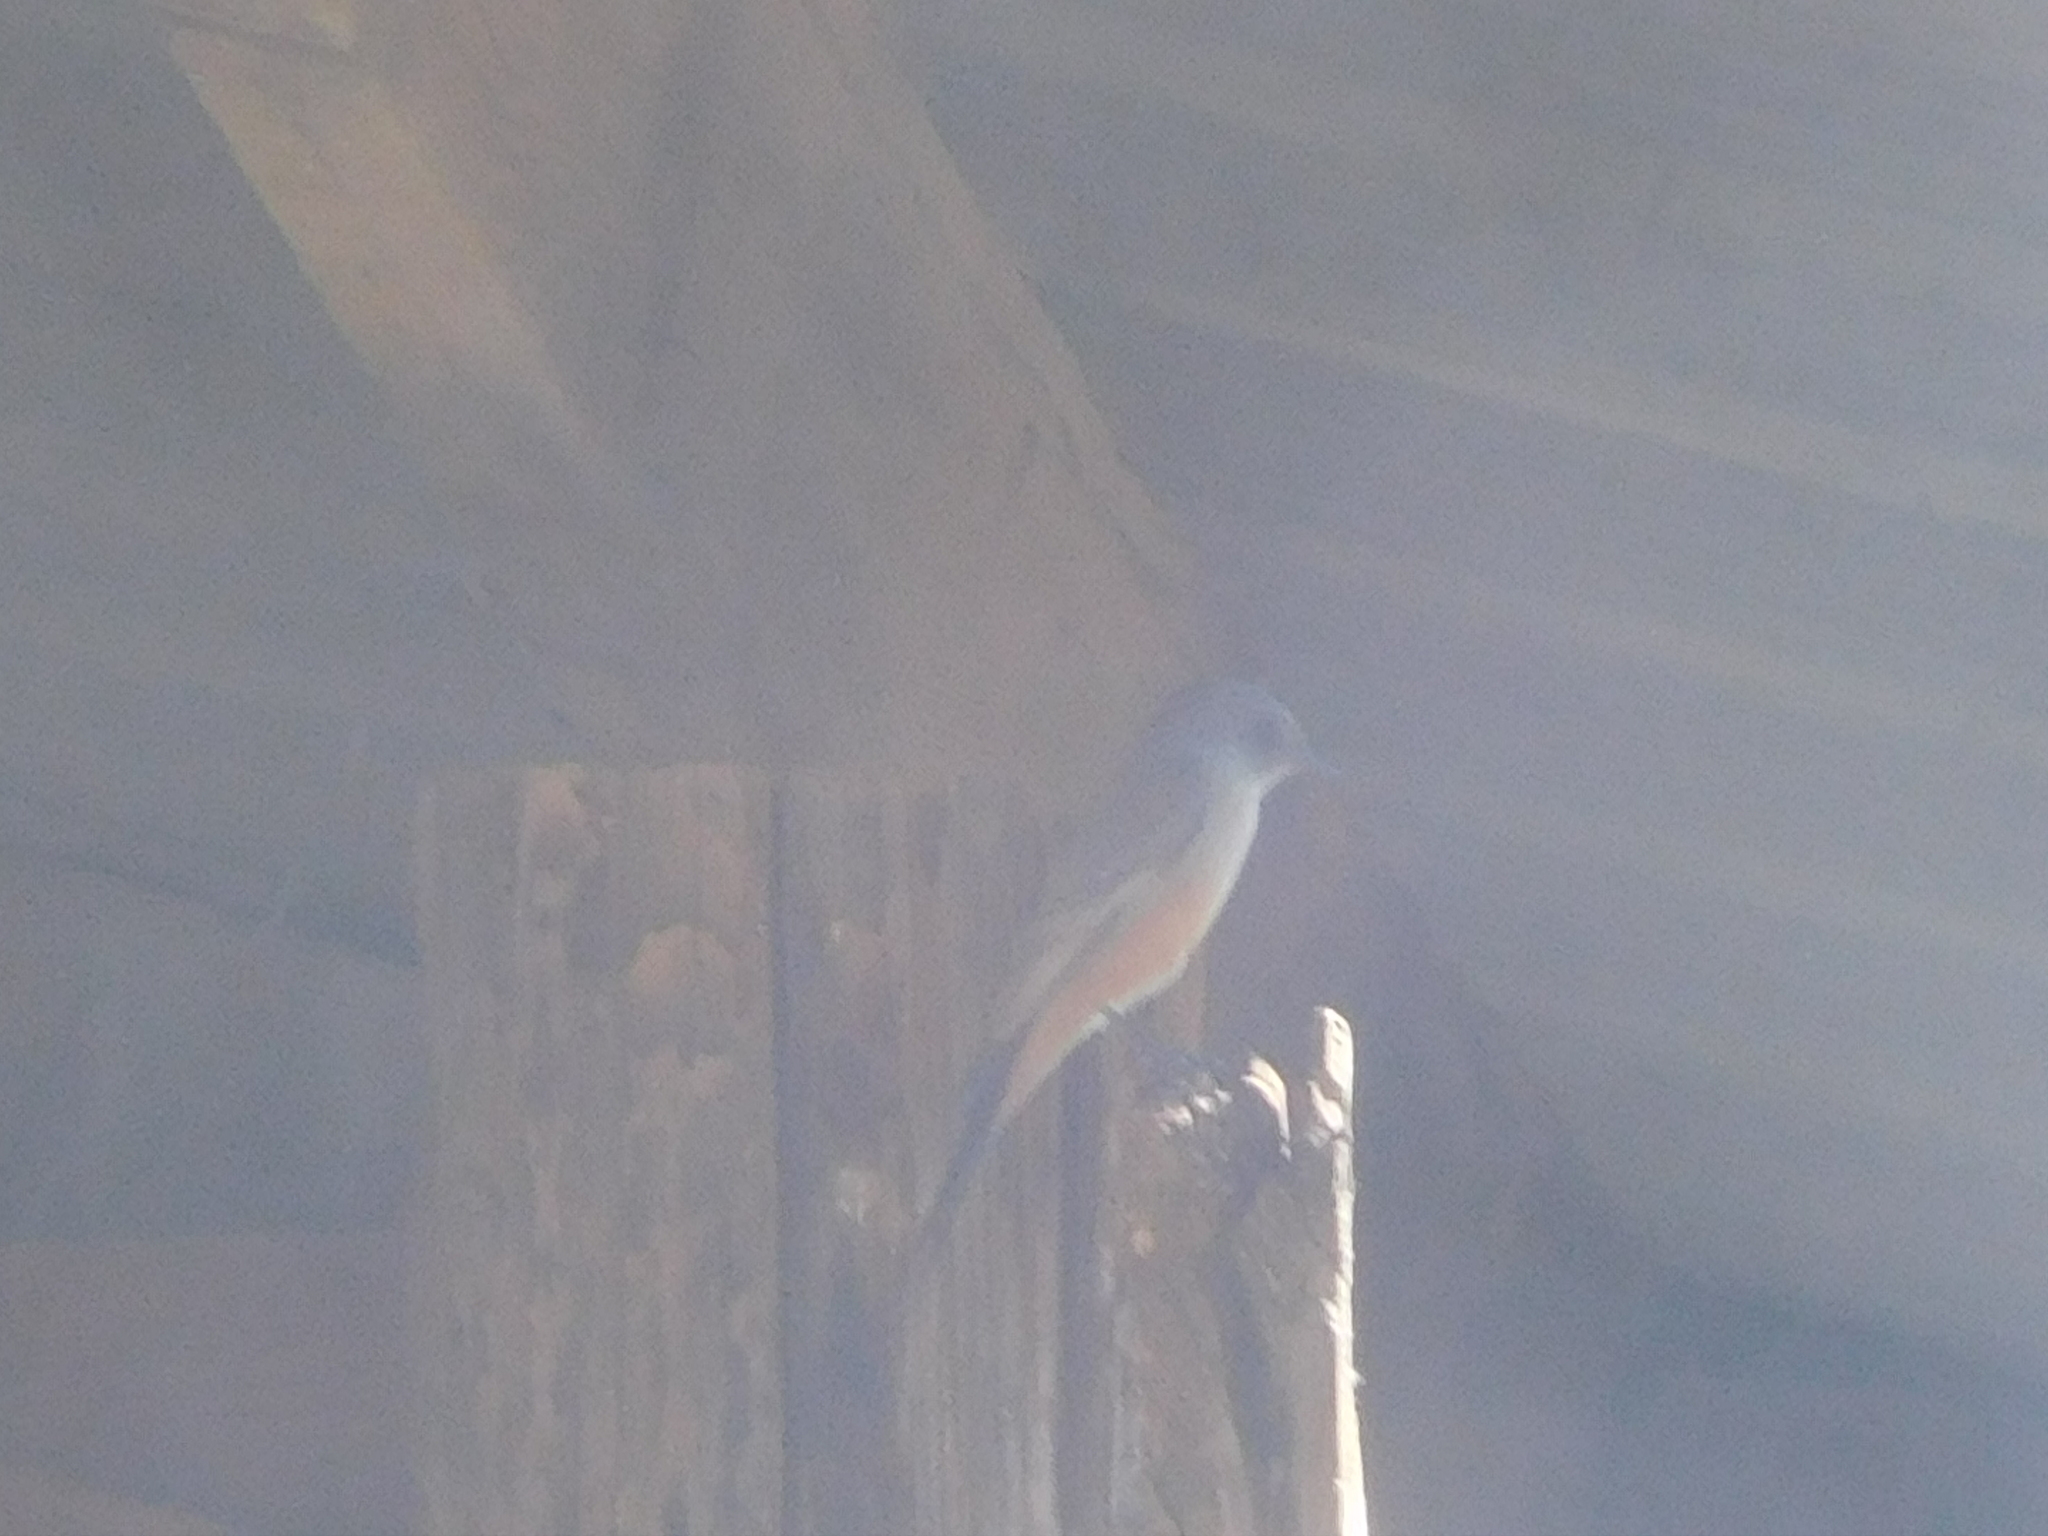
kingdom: Animalia
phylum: Chordata
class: Aves
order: Passeriformes
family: Tyrannidae
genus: Sayornis
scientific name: Sayornis saya
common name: Say's phoebe
